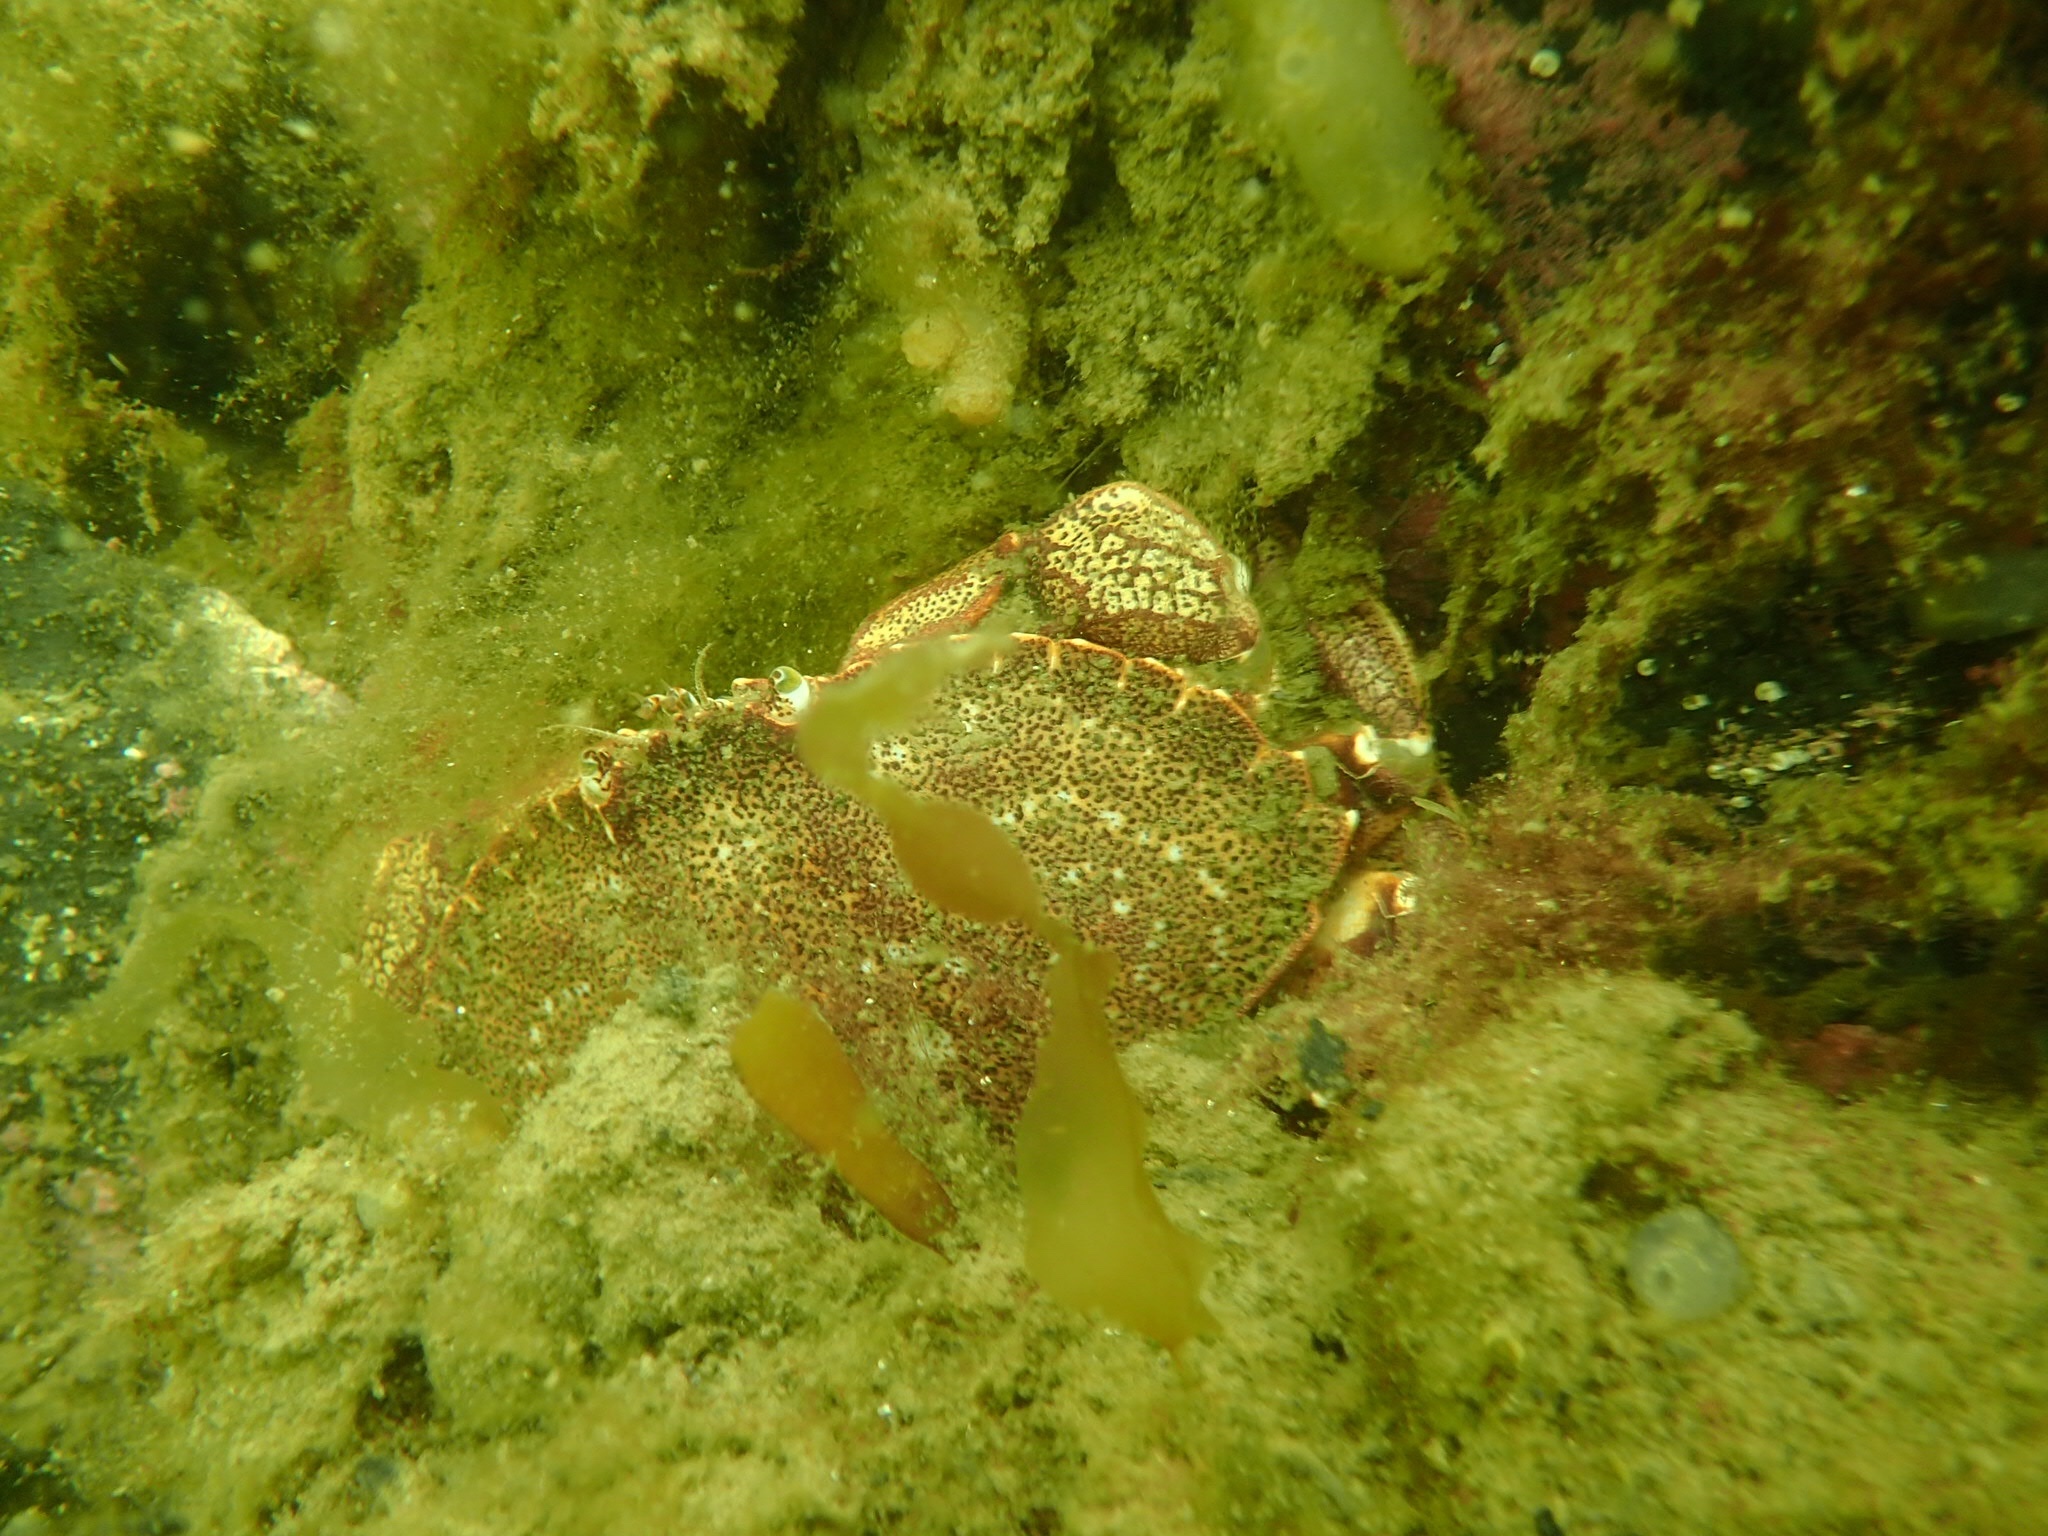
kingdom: Animalia
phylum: Arthropoda
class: Malacostraca
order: Decapoda
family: Cancridae
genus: Cancer
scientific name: Cancer irroratus
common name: Atlantic rock crab
